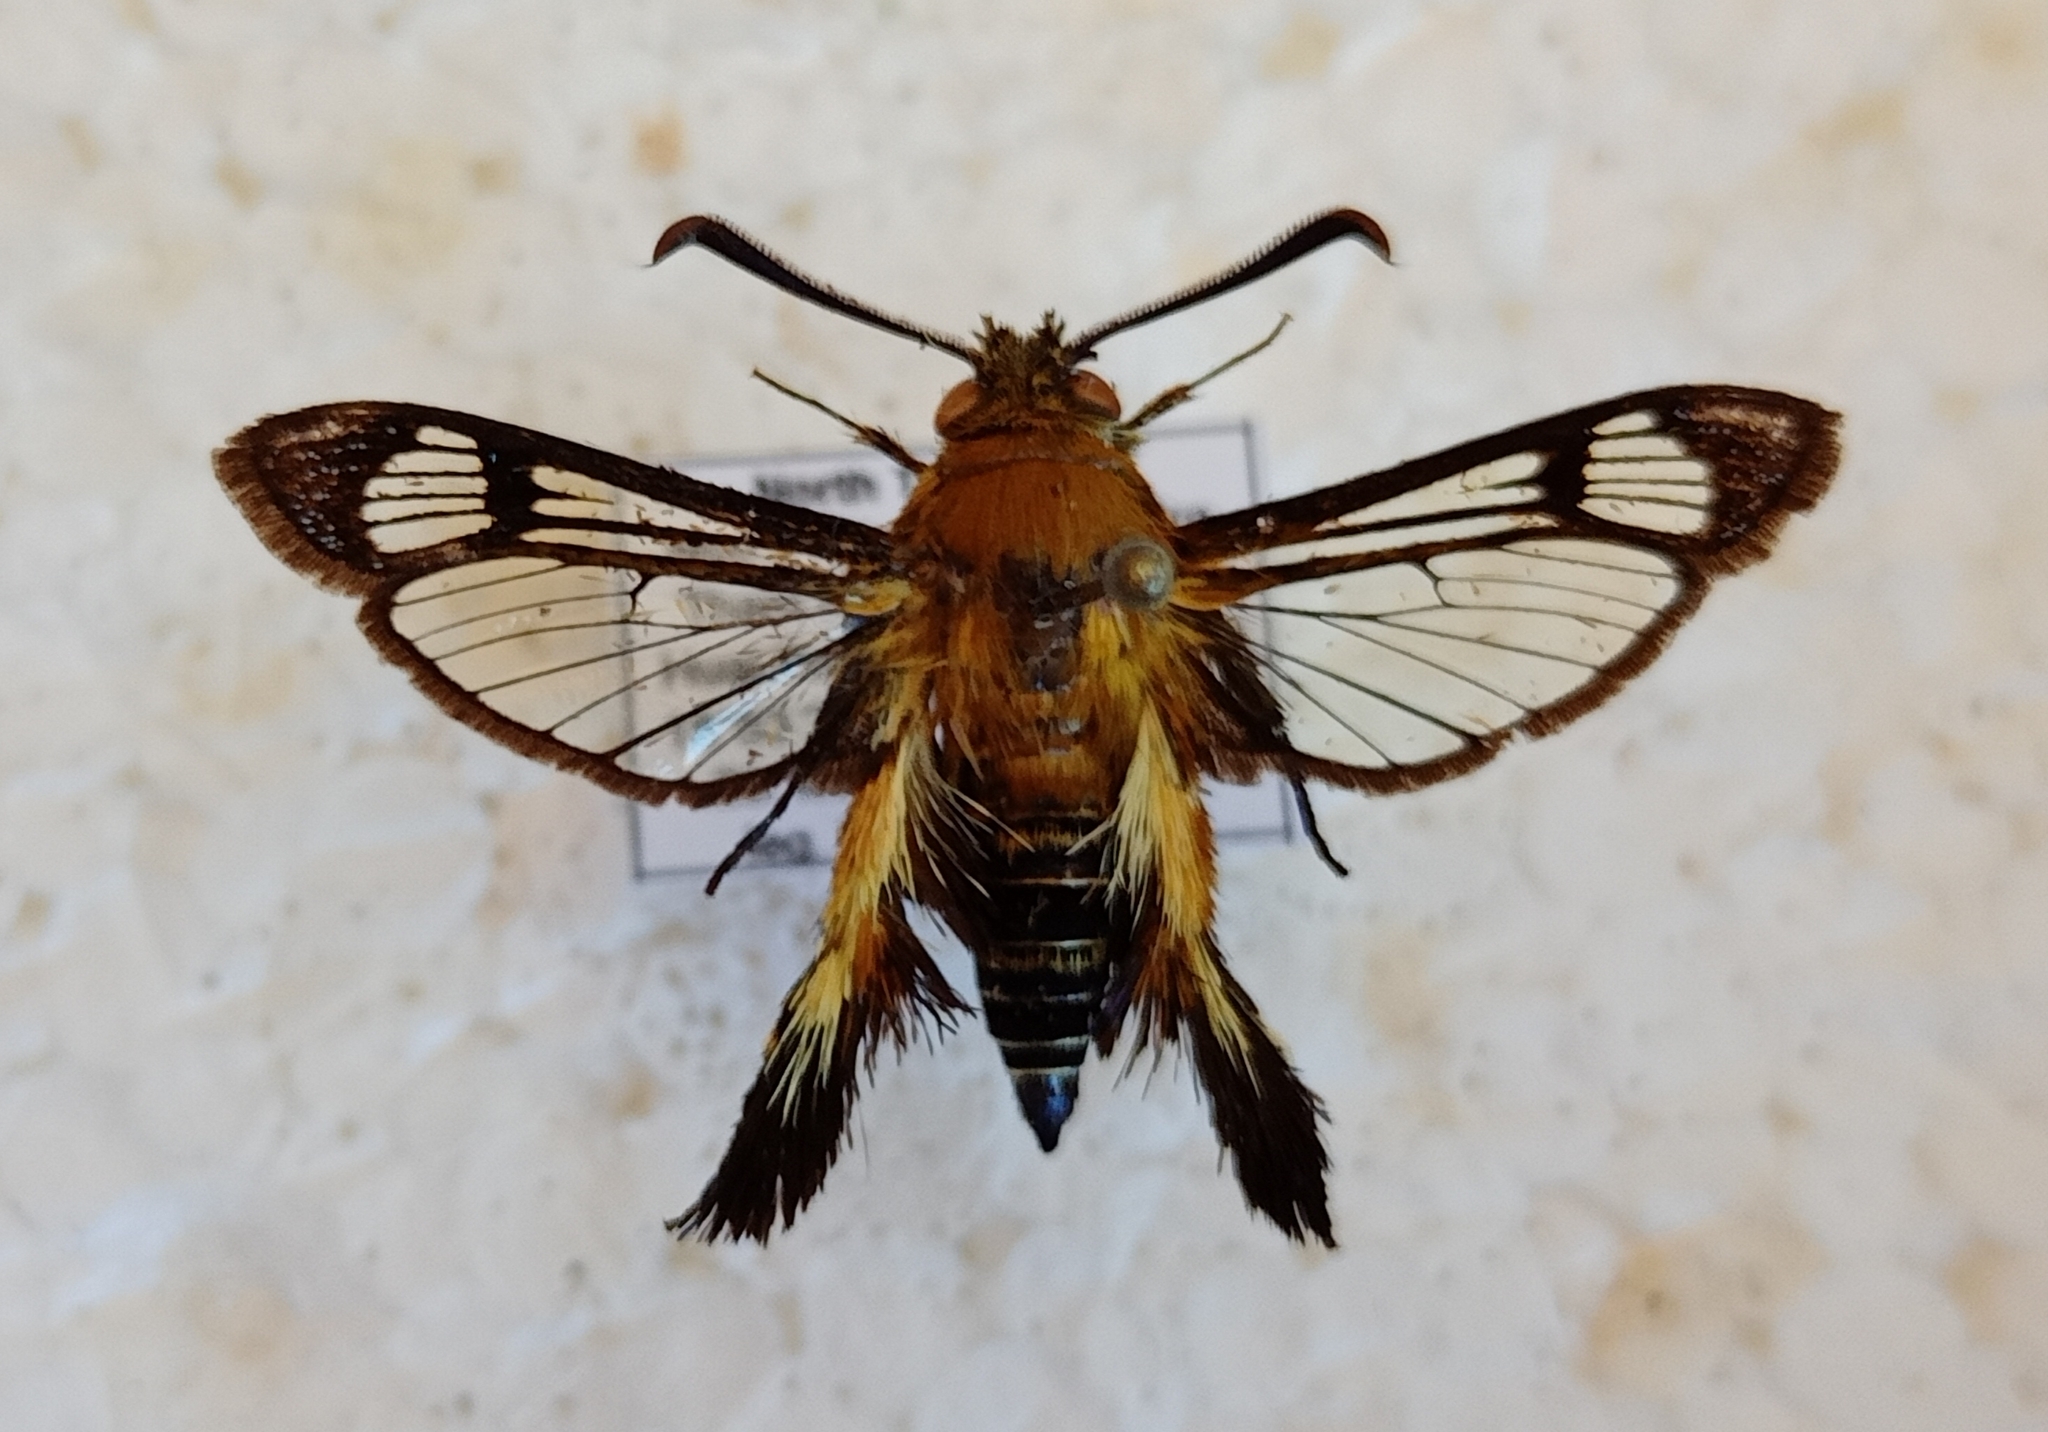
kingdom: Animalia
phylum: Arthropoda
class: Insecta
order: Lepidoptera
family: Sesiidae
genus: Melittia
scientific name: Melittia gorochovi
